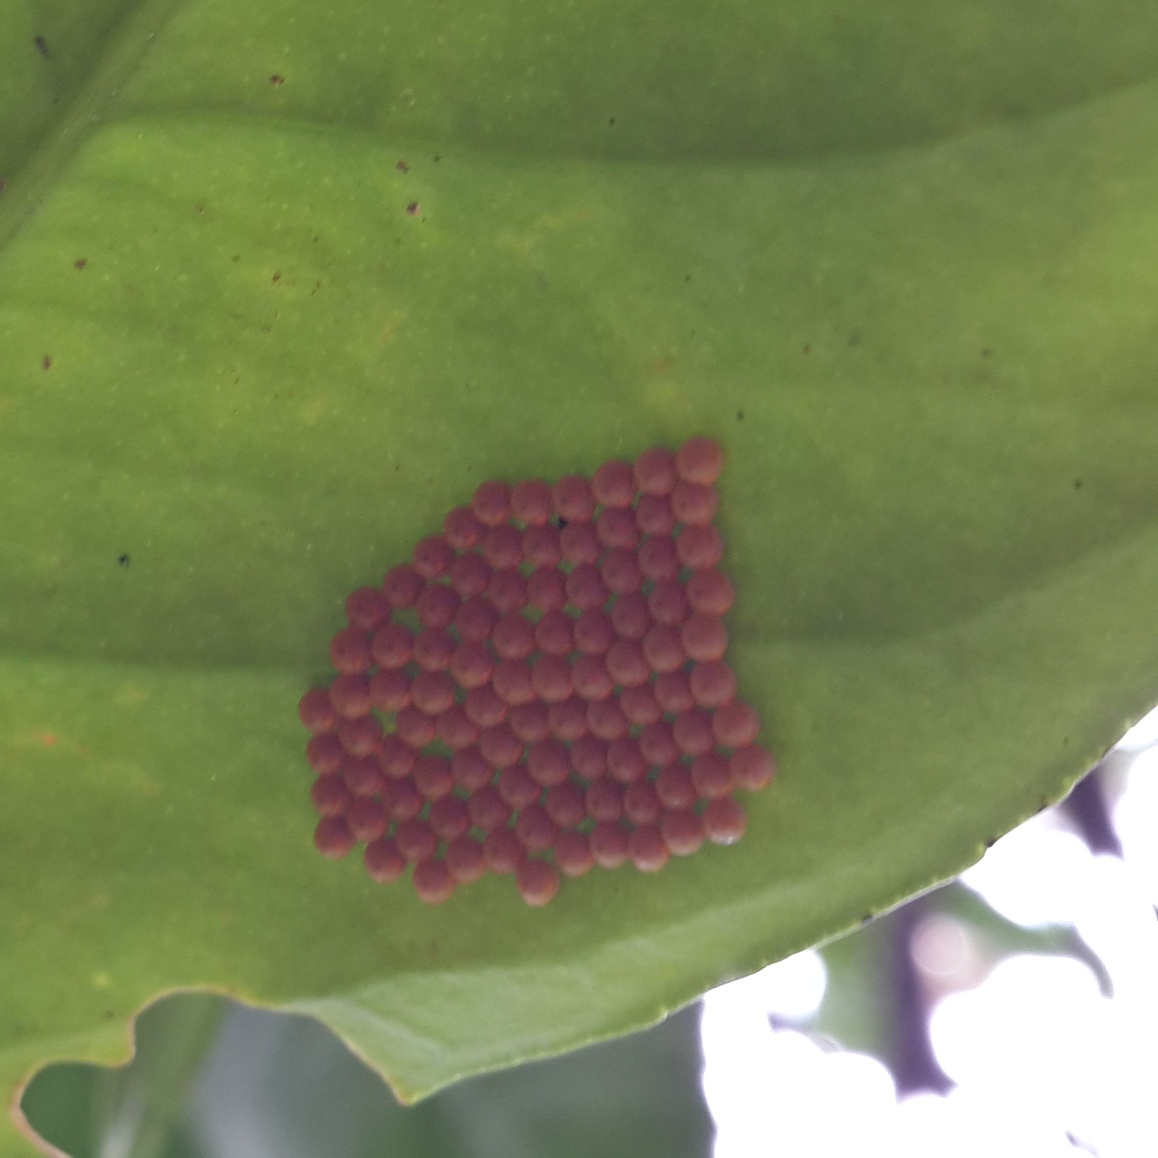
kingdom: Animalia
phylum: Arthropoda
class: Insecta
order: Lepidoptera
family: Papilionidae
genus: Papilio
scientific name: Papilio anchisiades
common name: Idaes swallowtail
